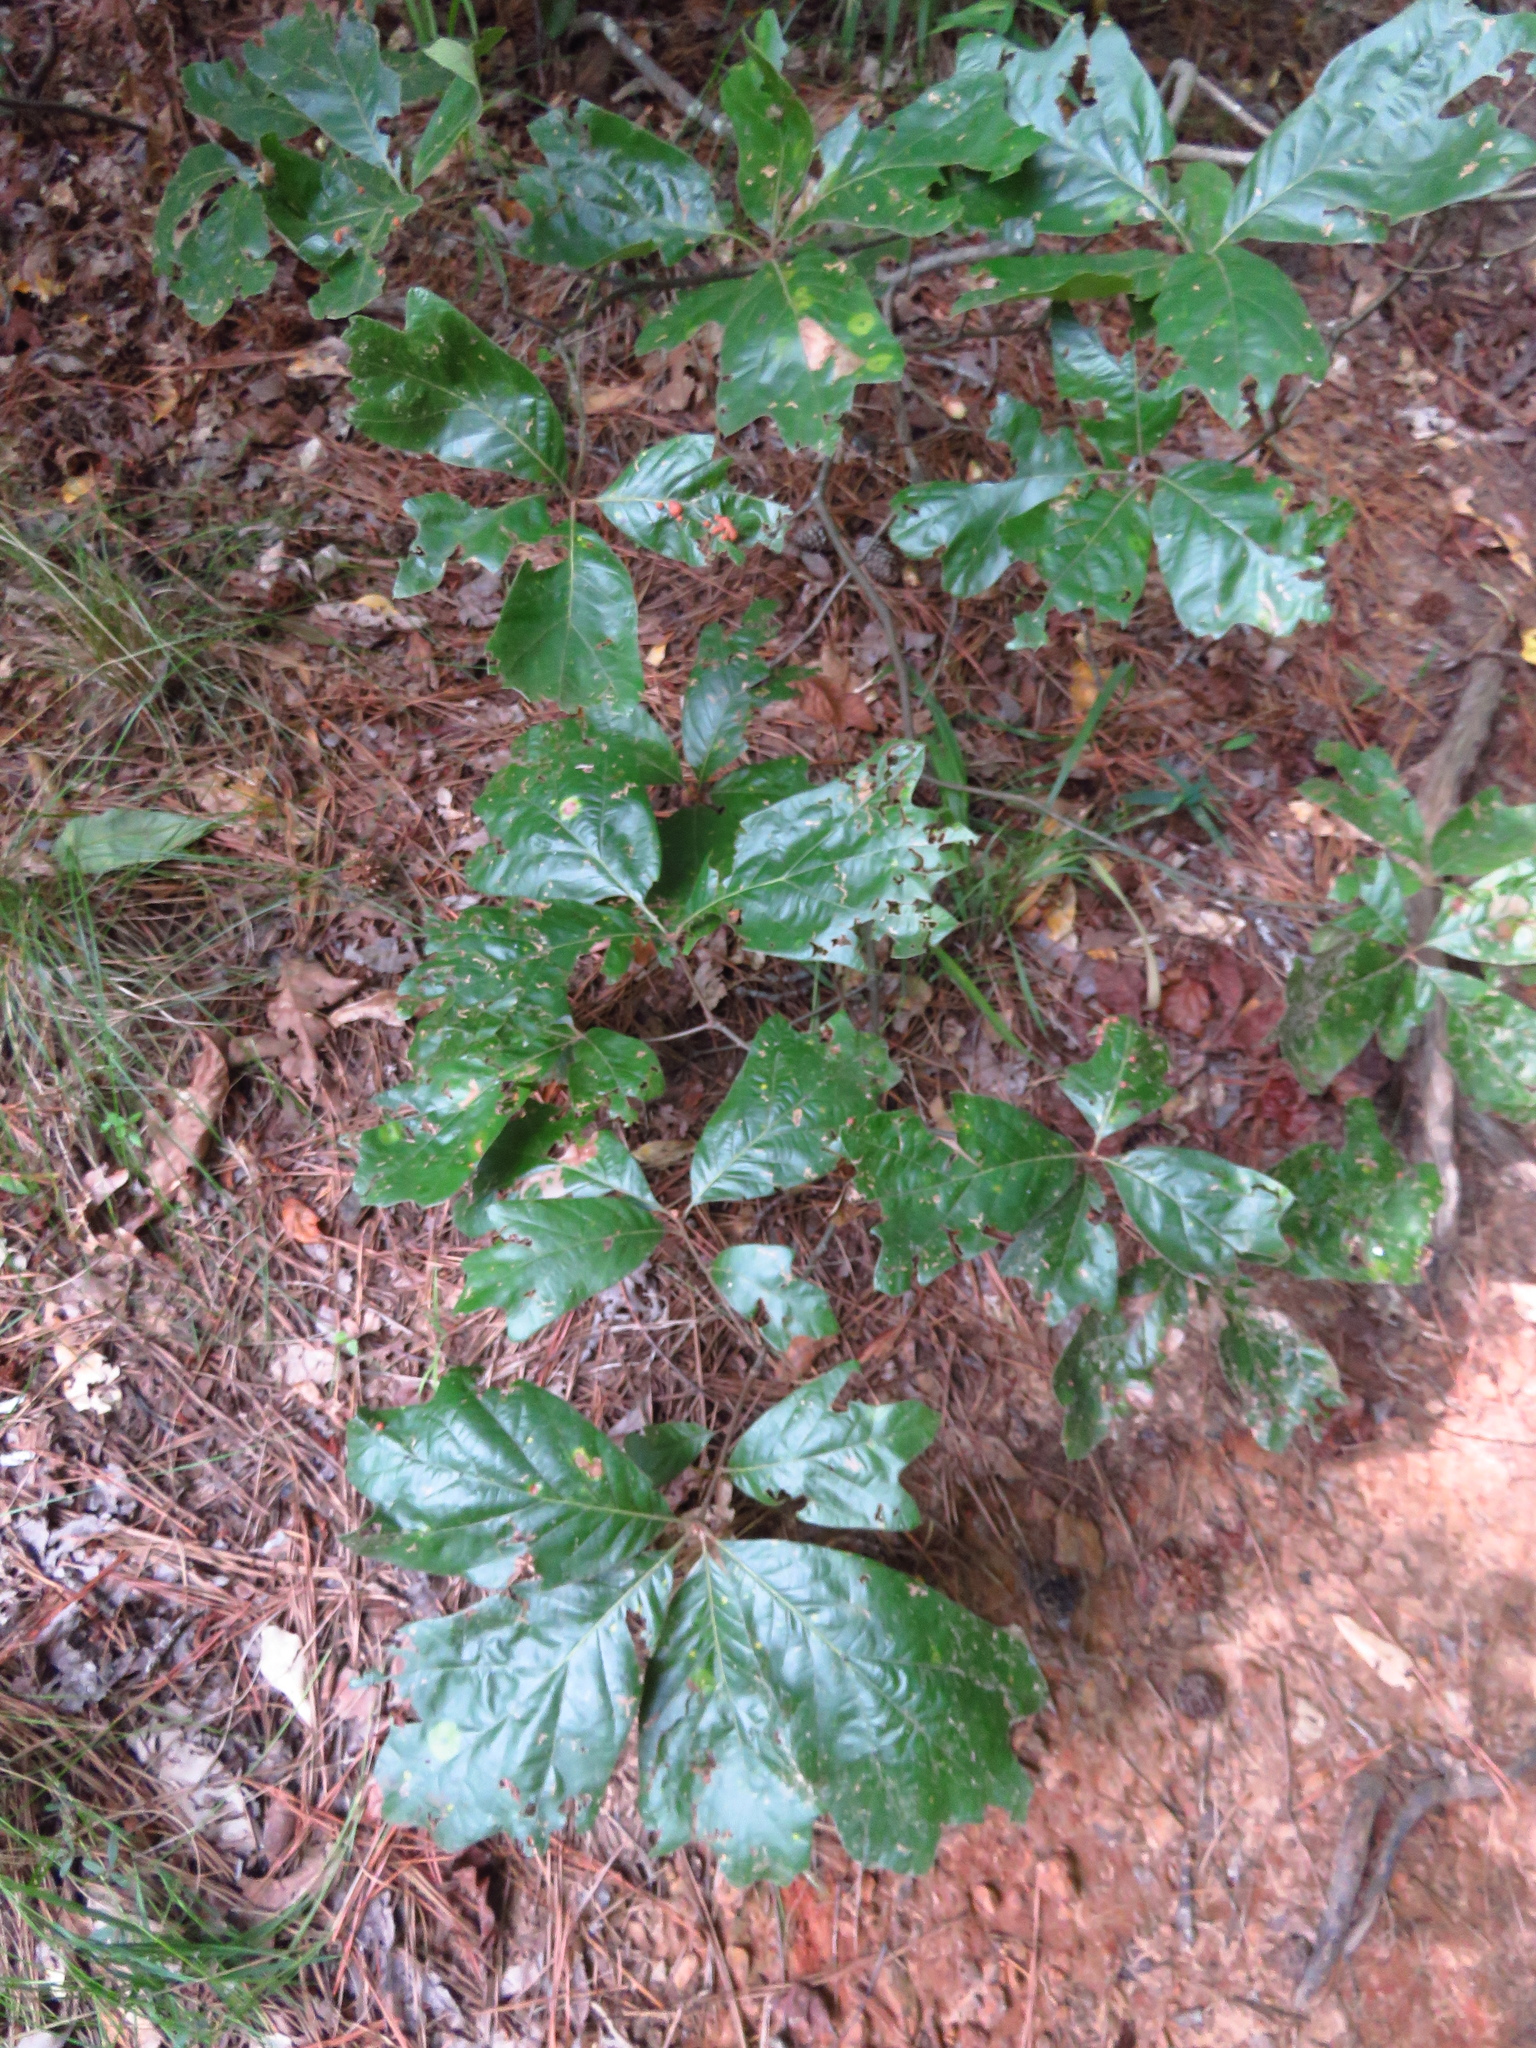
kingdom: Plantae
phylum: Tracheophyta
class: Magnoliopsida
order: Fagales
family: Fagaceae
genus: Quercus
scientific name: Quercus falcata
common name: Southern red oak
